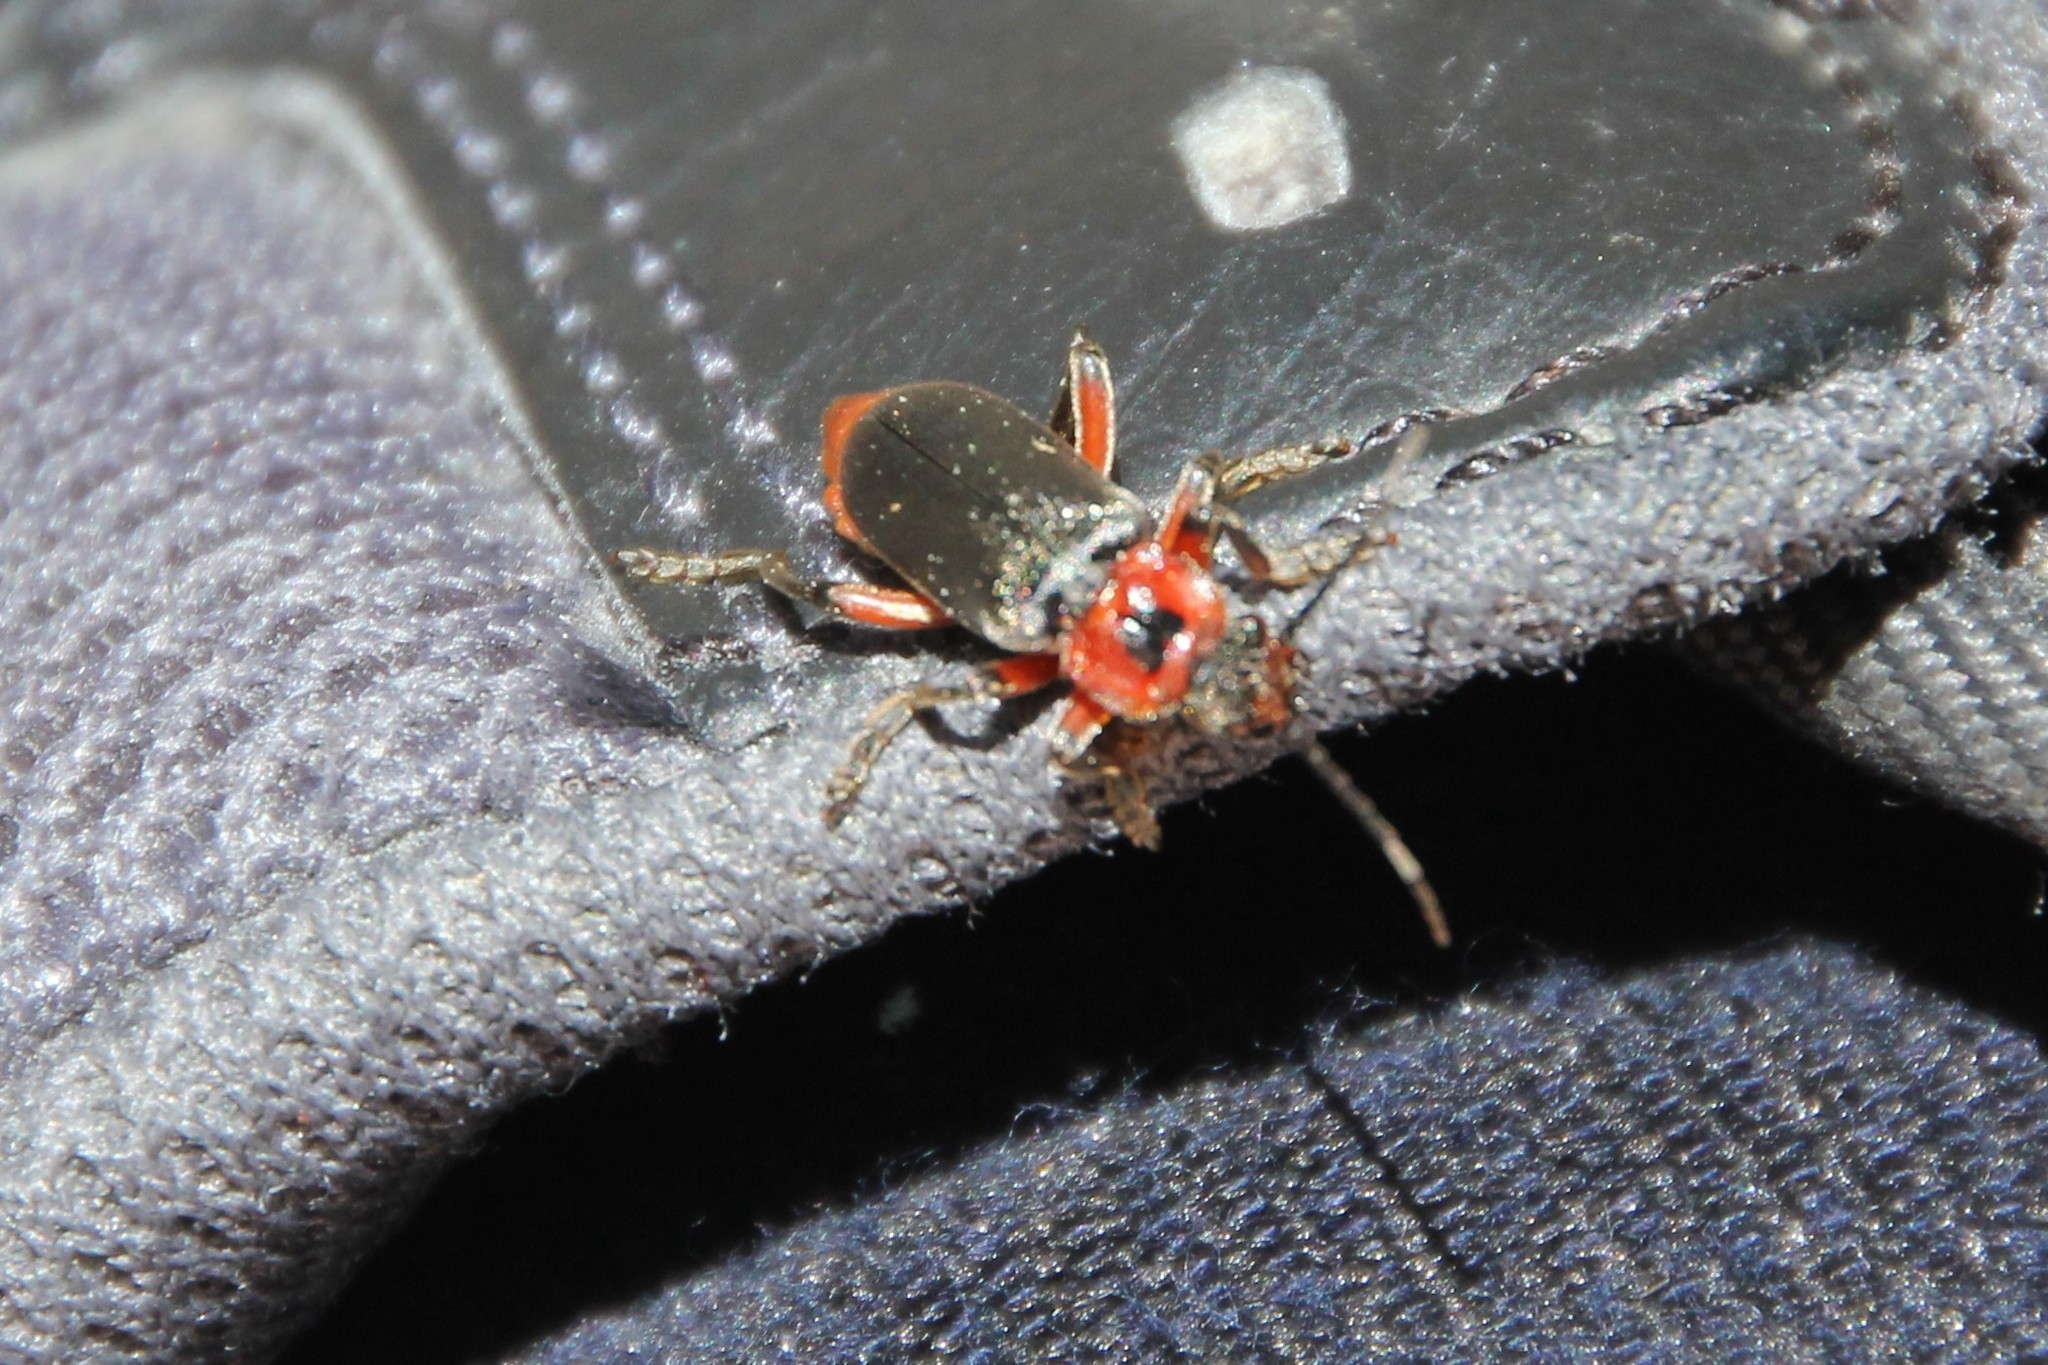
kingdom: Animalia
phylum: Arthropoda
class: Insecta
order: Coleoptera
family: Cantharidae
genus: Cantharis
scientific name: Cantharis rustica
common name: Soldier beetle
